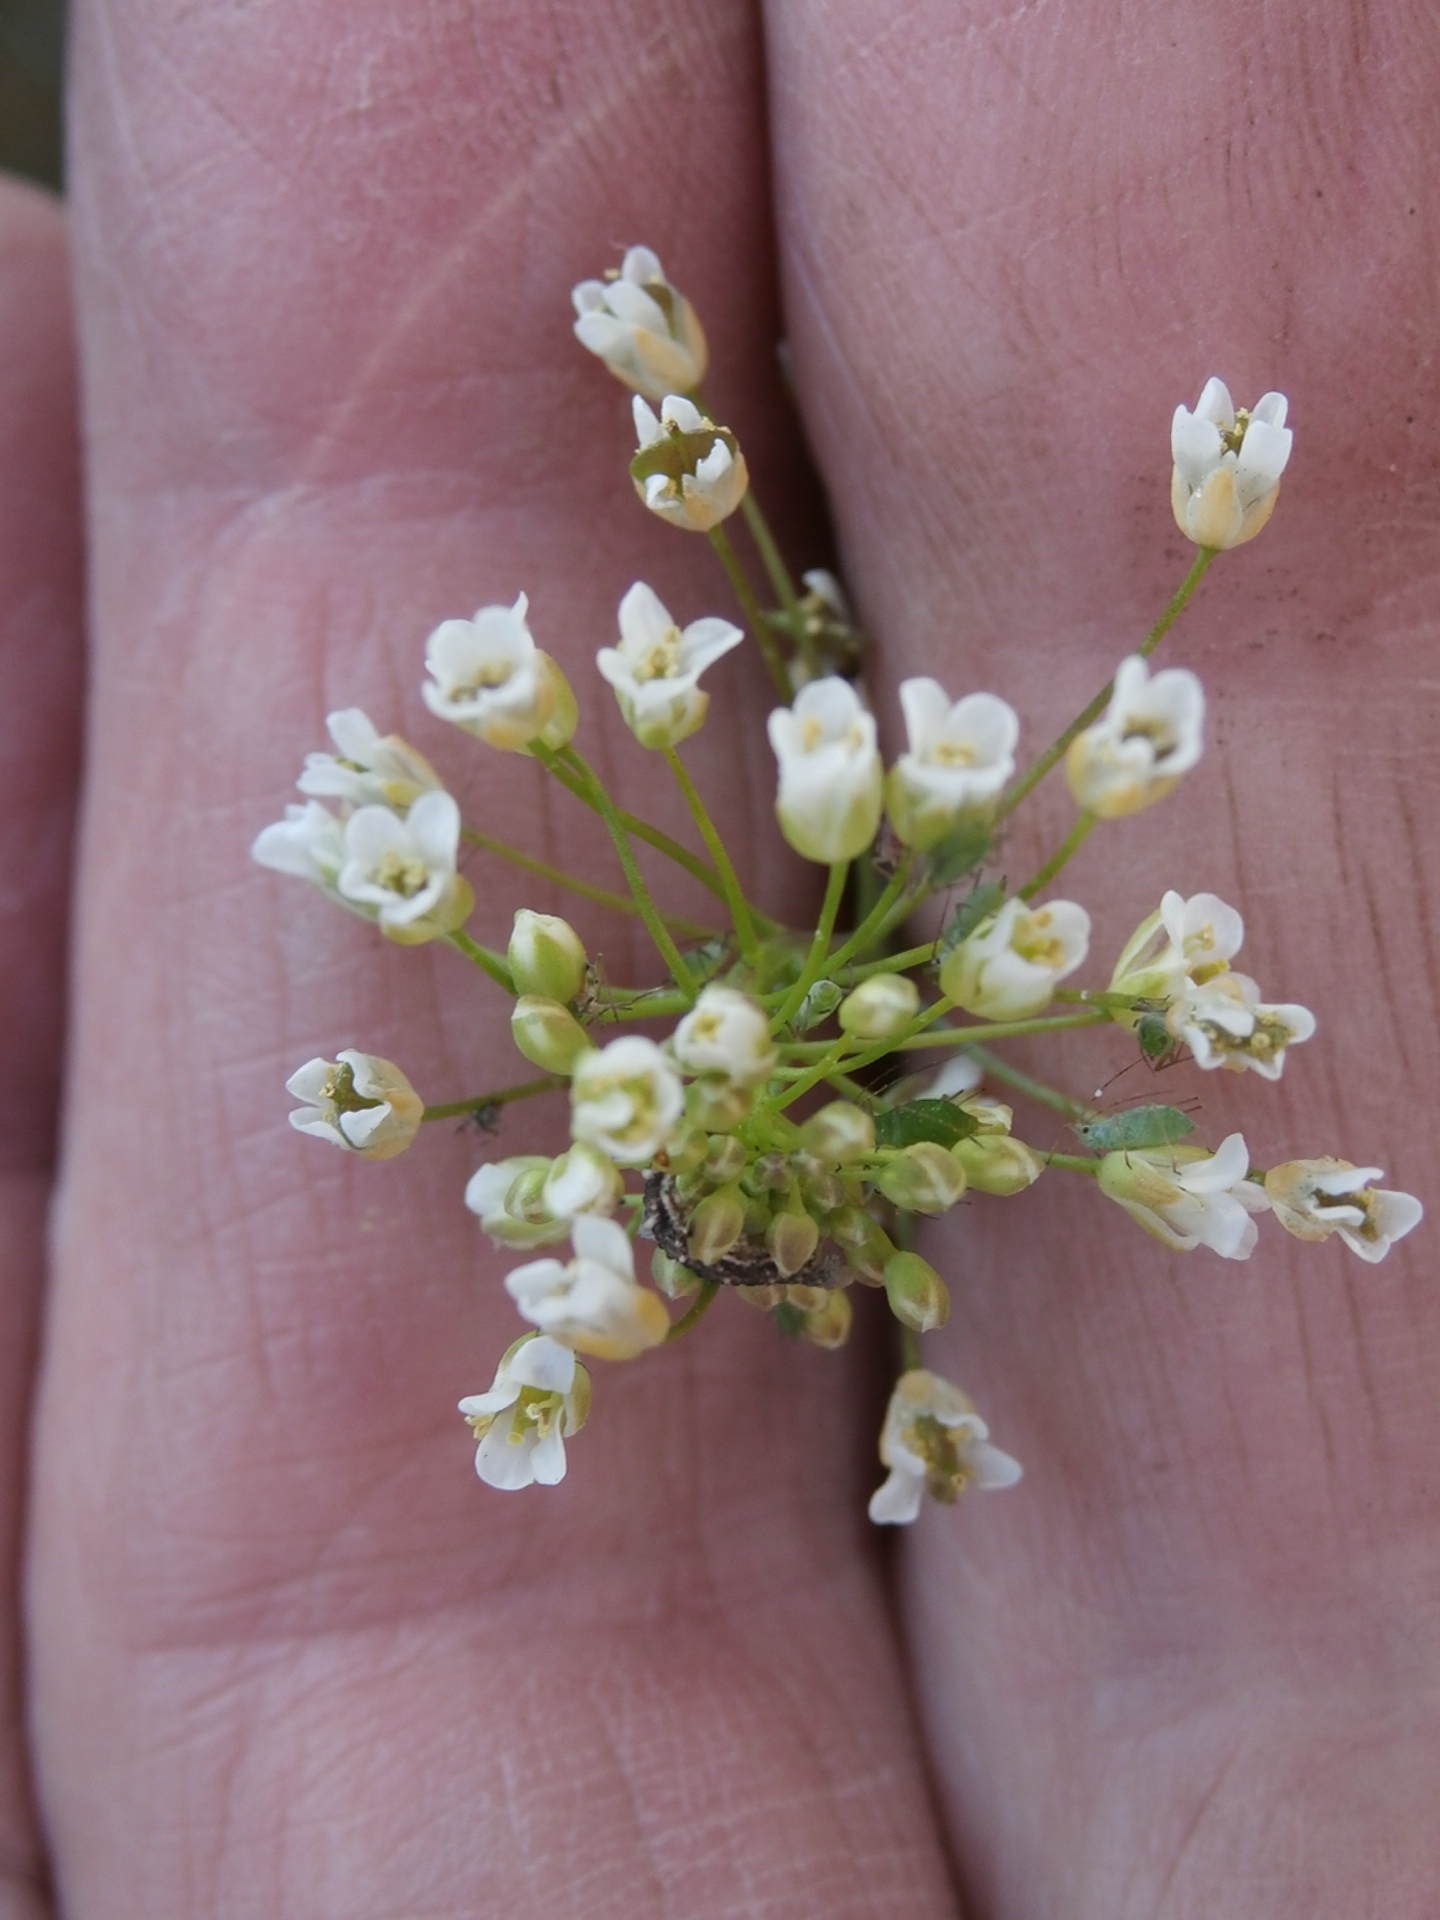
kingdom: Plantae
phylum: Tracheophyta
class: Magnoliopsida
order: Brassicales
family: Brassicaceae
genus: Capsella
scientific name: Capsella bursa-pastoris
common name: Shepherd's purse
